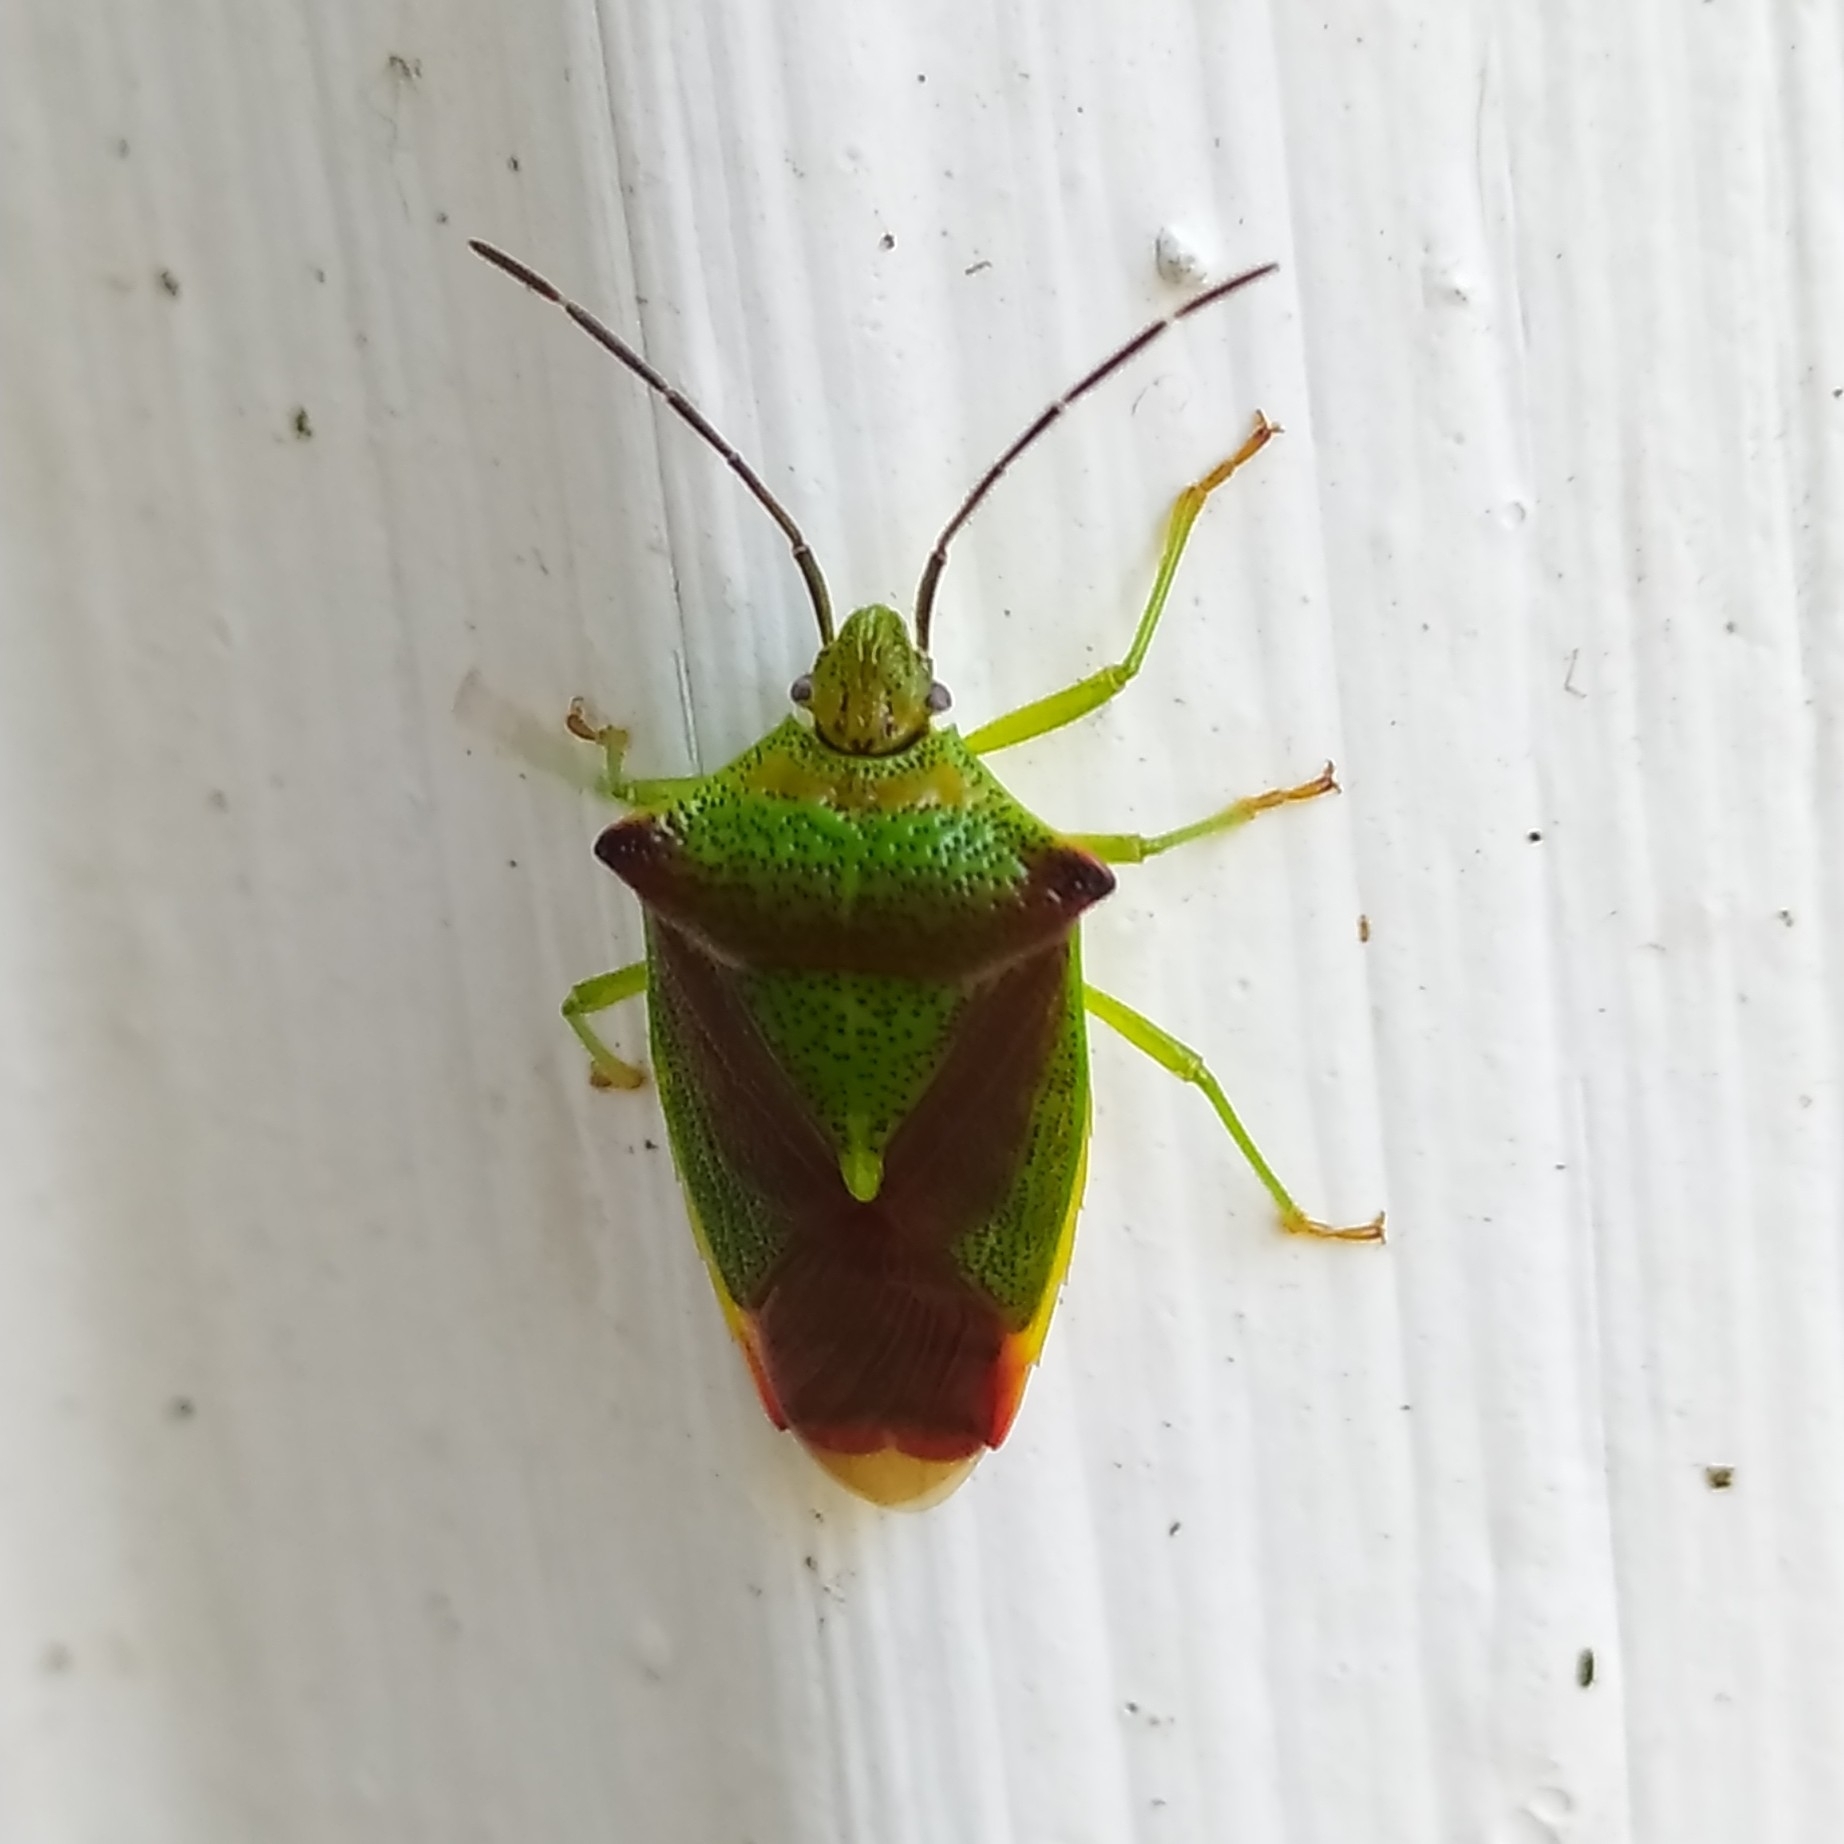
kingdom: Animalia
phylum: Arthropoda
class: Insecta
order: Hemiptera
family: Acanthosomatidae
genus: Acanthosoma
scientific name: Acanthosoma haemorrhoidale
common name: Hawthorn shieldbug
